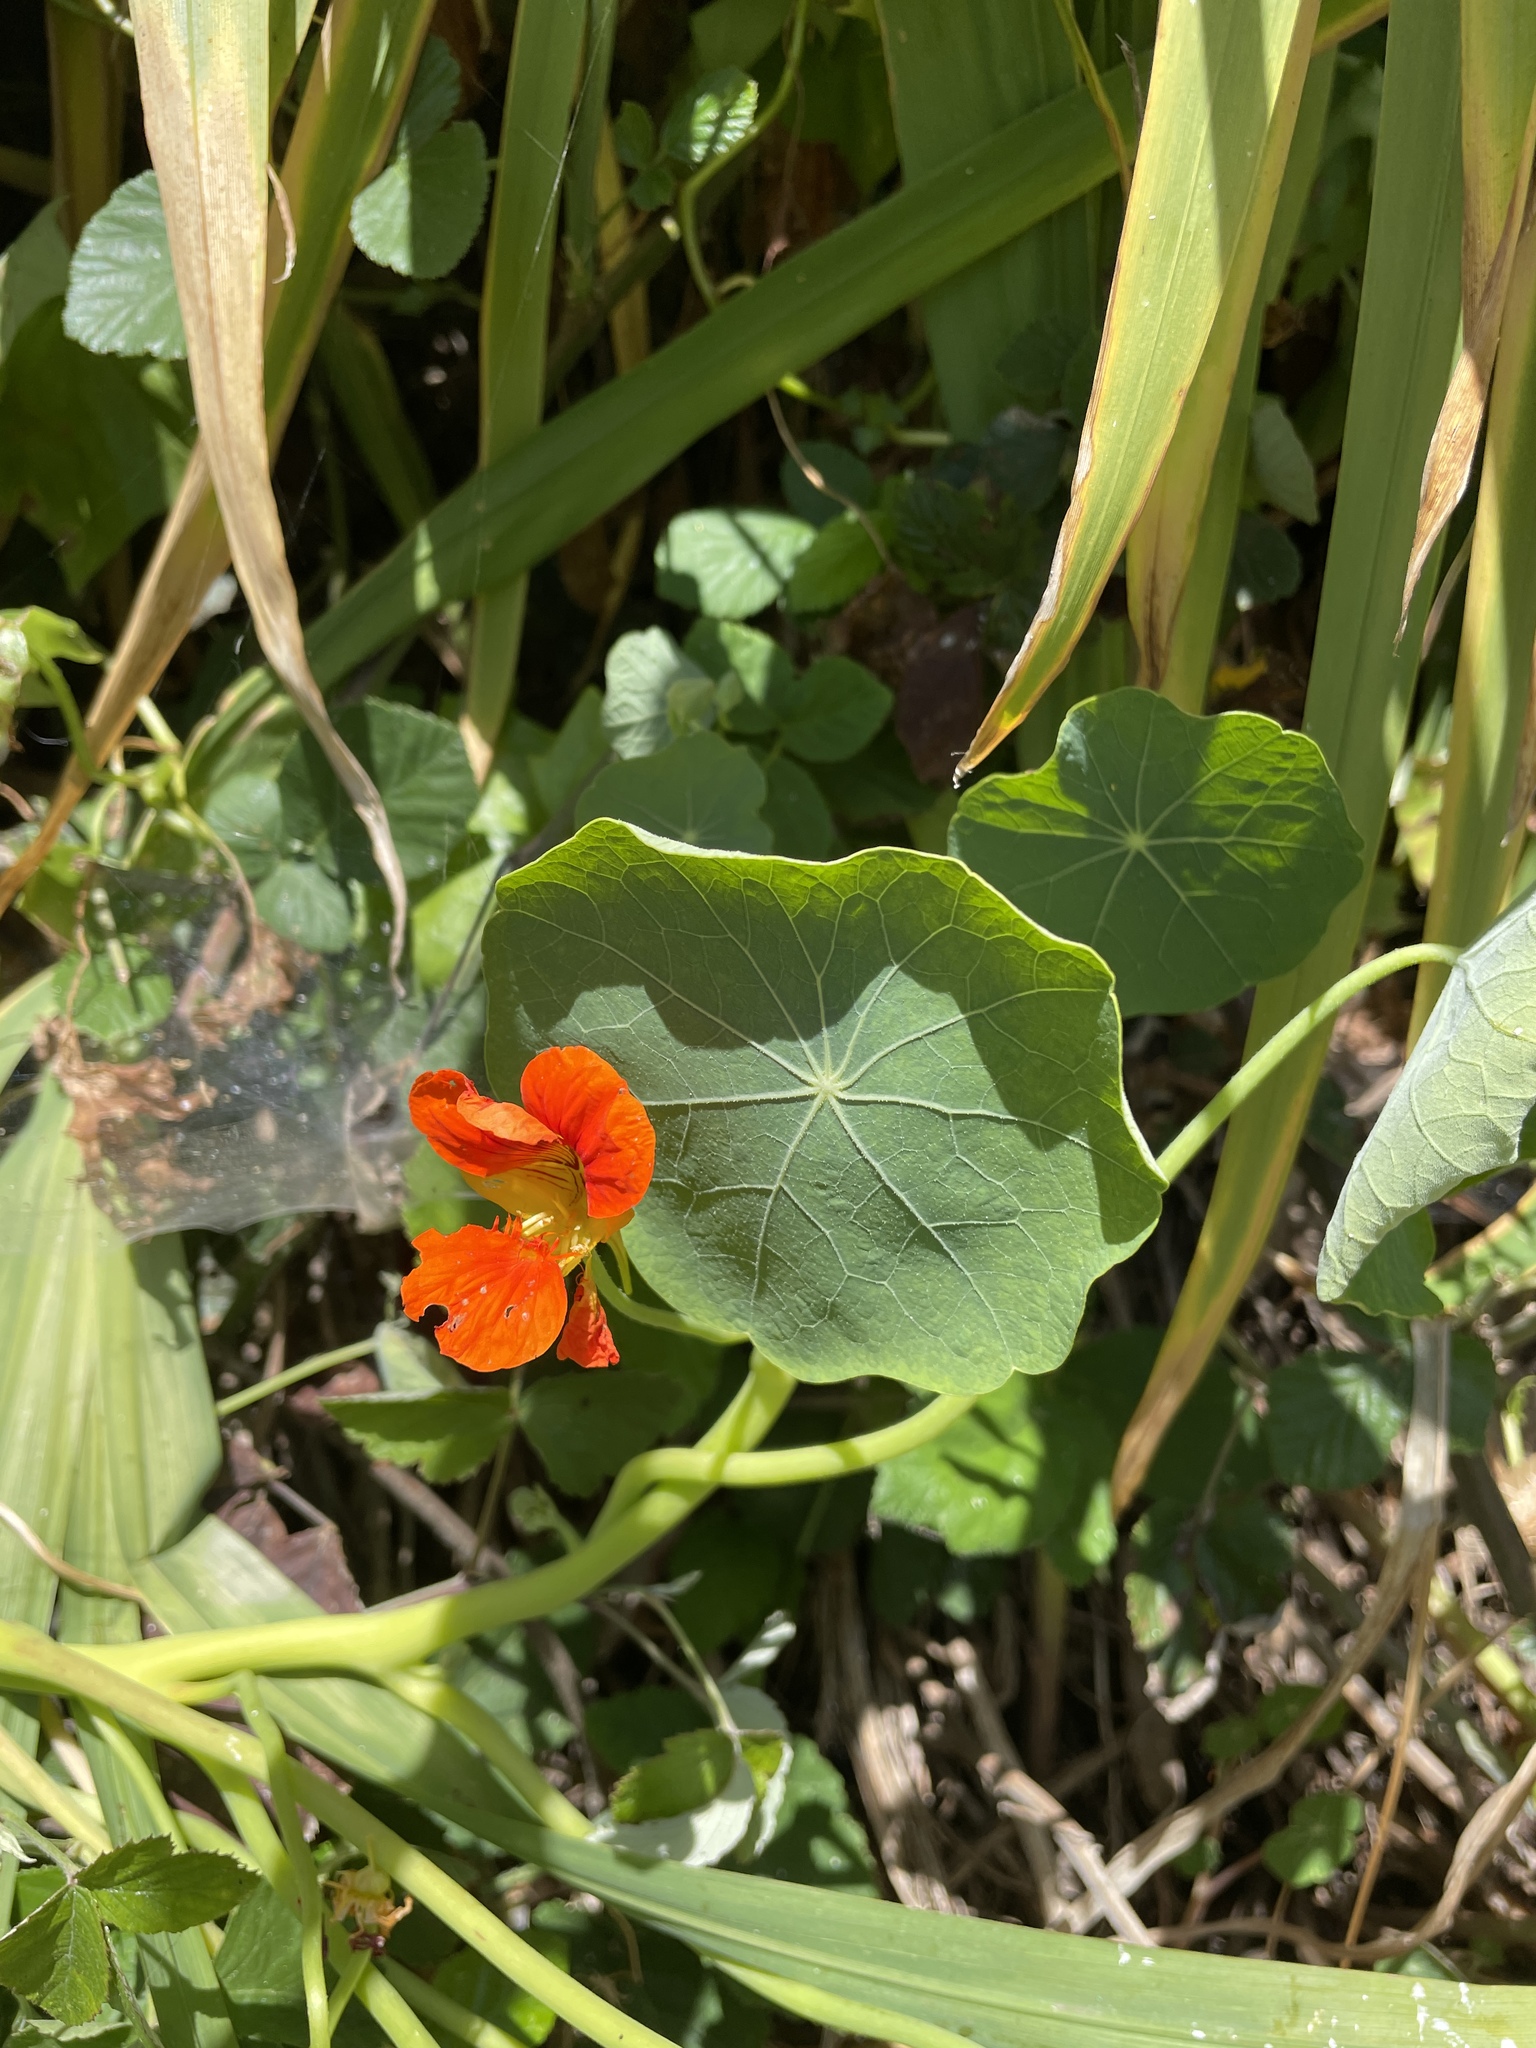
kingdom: Plantae
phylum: Tracheophyta
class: Magnoliopsida
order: Brassicales
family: Tropaeolaceae
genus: Tropaeolum
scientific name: Tropaeolum majus
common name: Nasturtium
